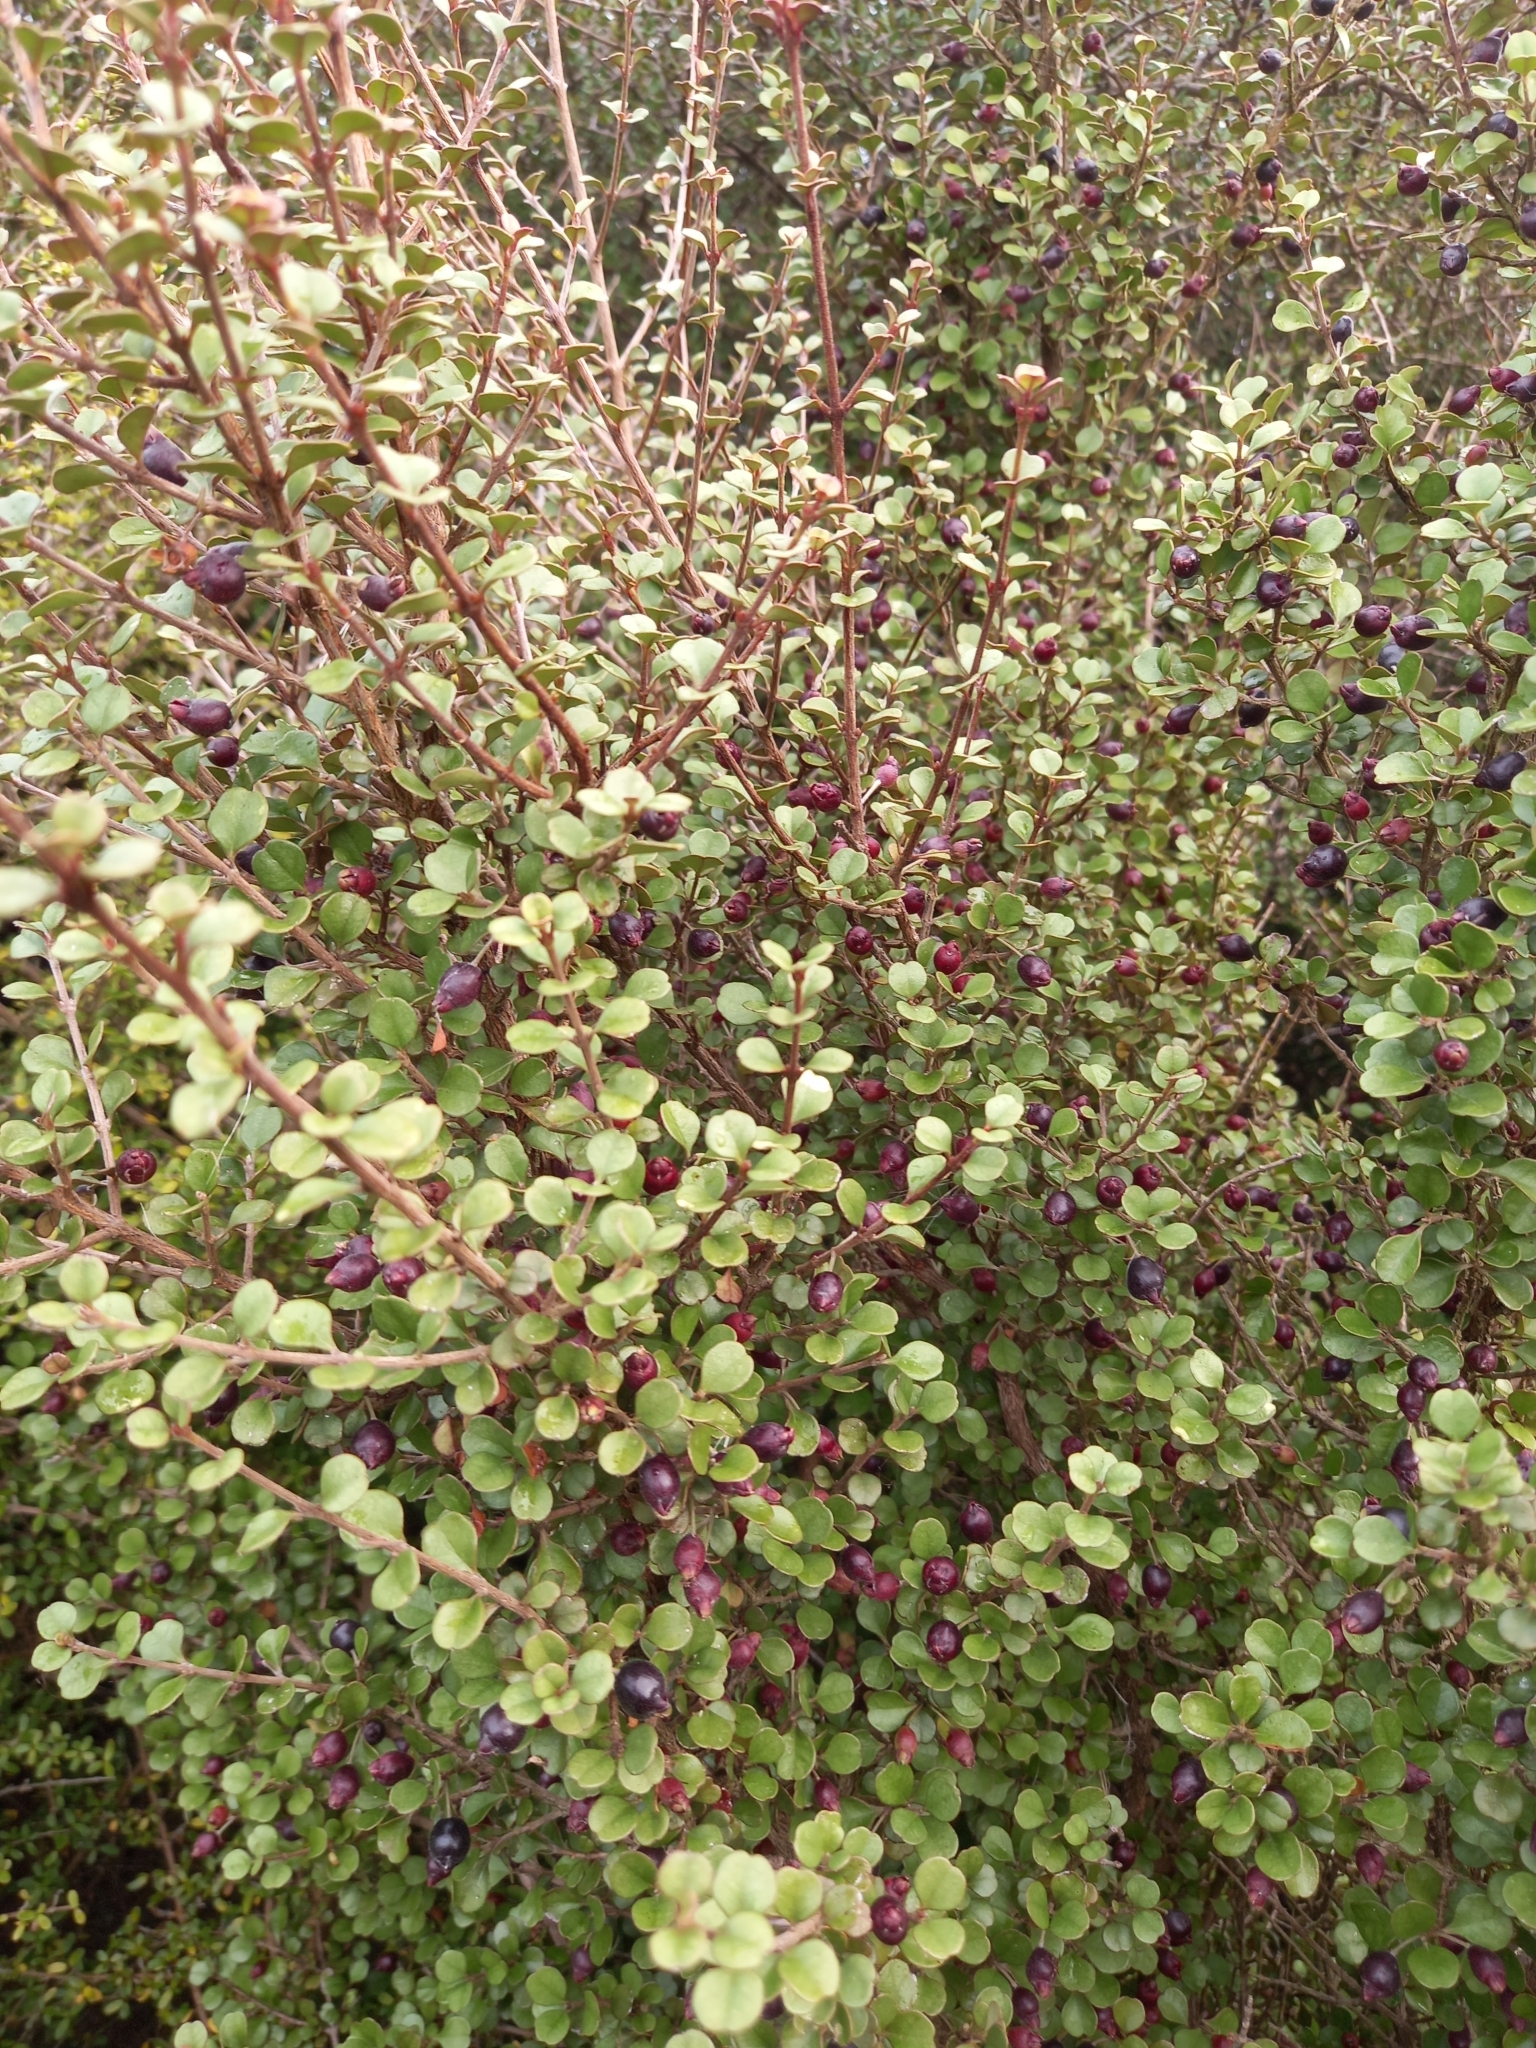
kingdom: Plantae
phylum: Tracheophyta
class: Magnoliopsida
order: Myrtales
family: Myrtaceae
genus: Lophomyrtus
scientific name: Lophomyrtus obcordata
